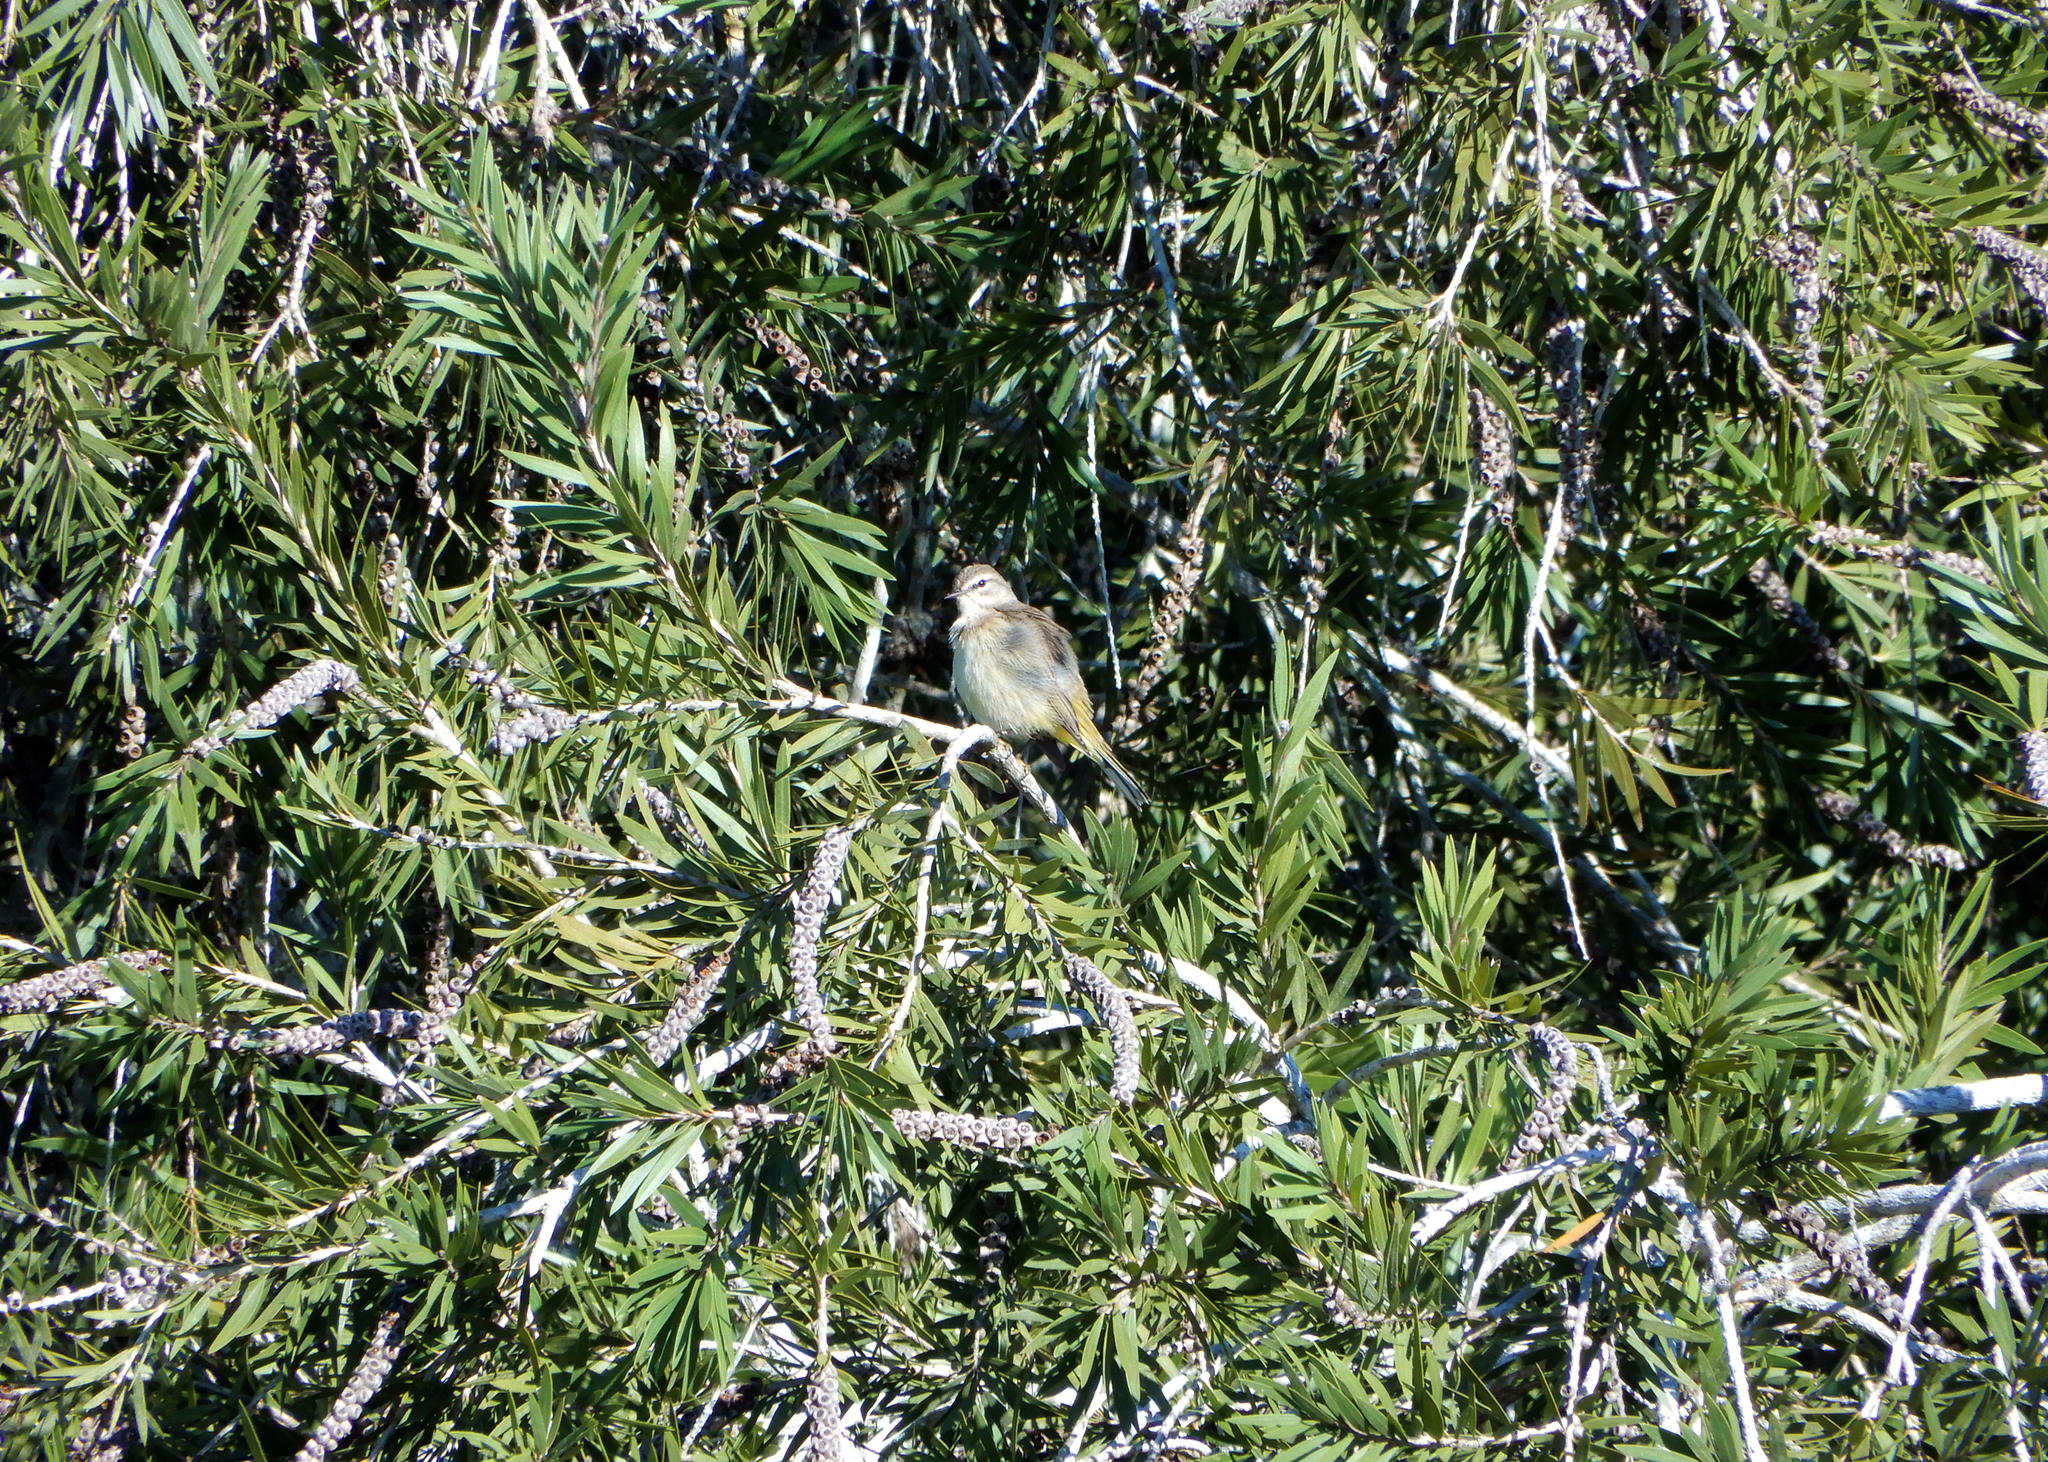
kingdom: Animalia
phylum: Chordata
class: Aves
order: Passeriformes
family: Parulidae
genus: Setophaga
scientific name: Setophaga palmarum
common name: Palm warbler
